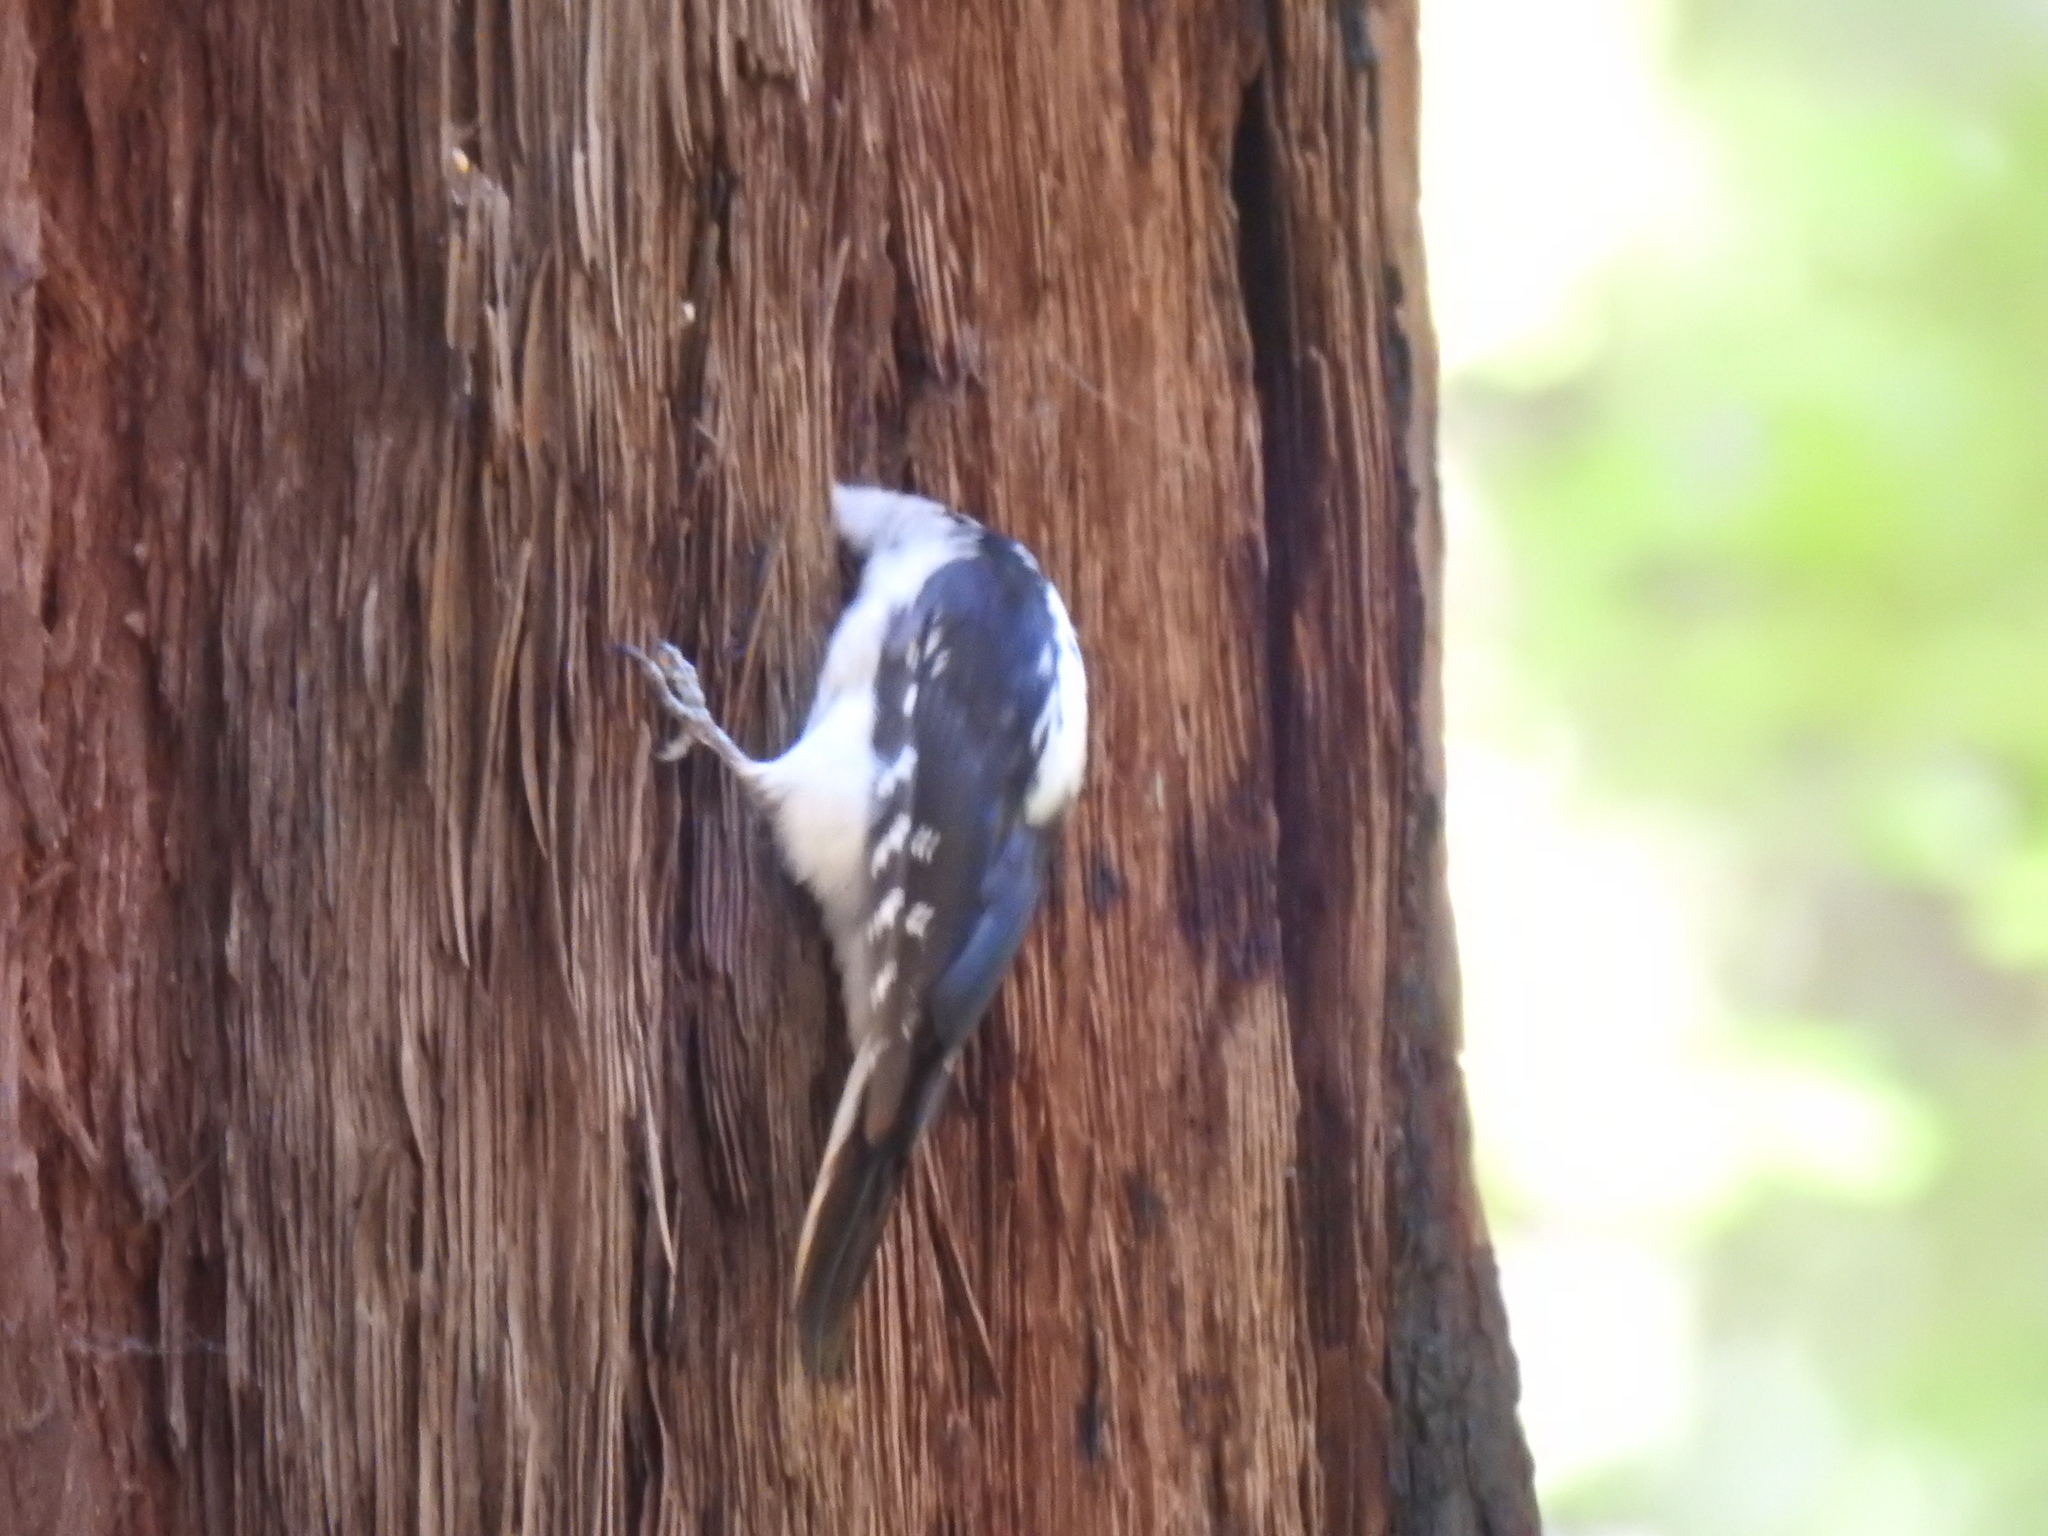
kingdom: Animalia
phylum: Chordata
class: Aves
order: Piciformes
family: Picidae
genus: Leuconotopicus
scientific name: Leuconotopicus villosus
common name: Hairy woodpecker
